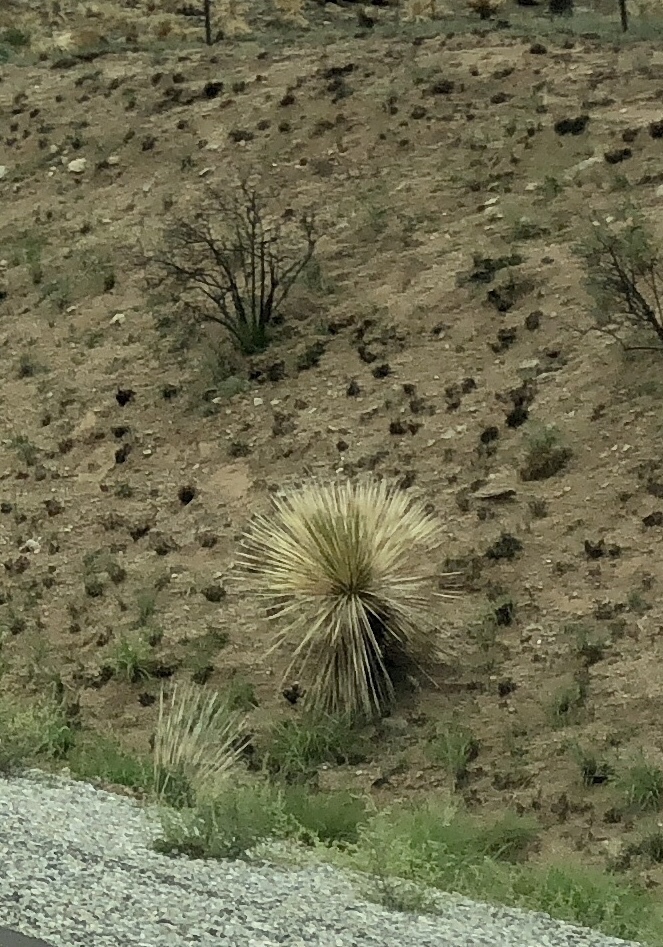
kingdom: Plantae
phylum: Tracheophyta
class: Liliopsida
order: Asparagales
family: Asparagaceae
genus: Dasylirion
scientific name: Dasylirion wheeleri
